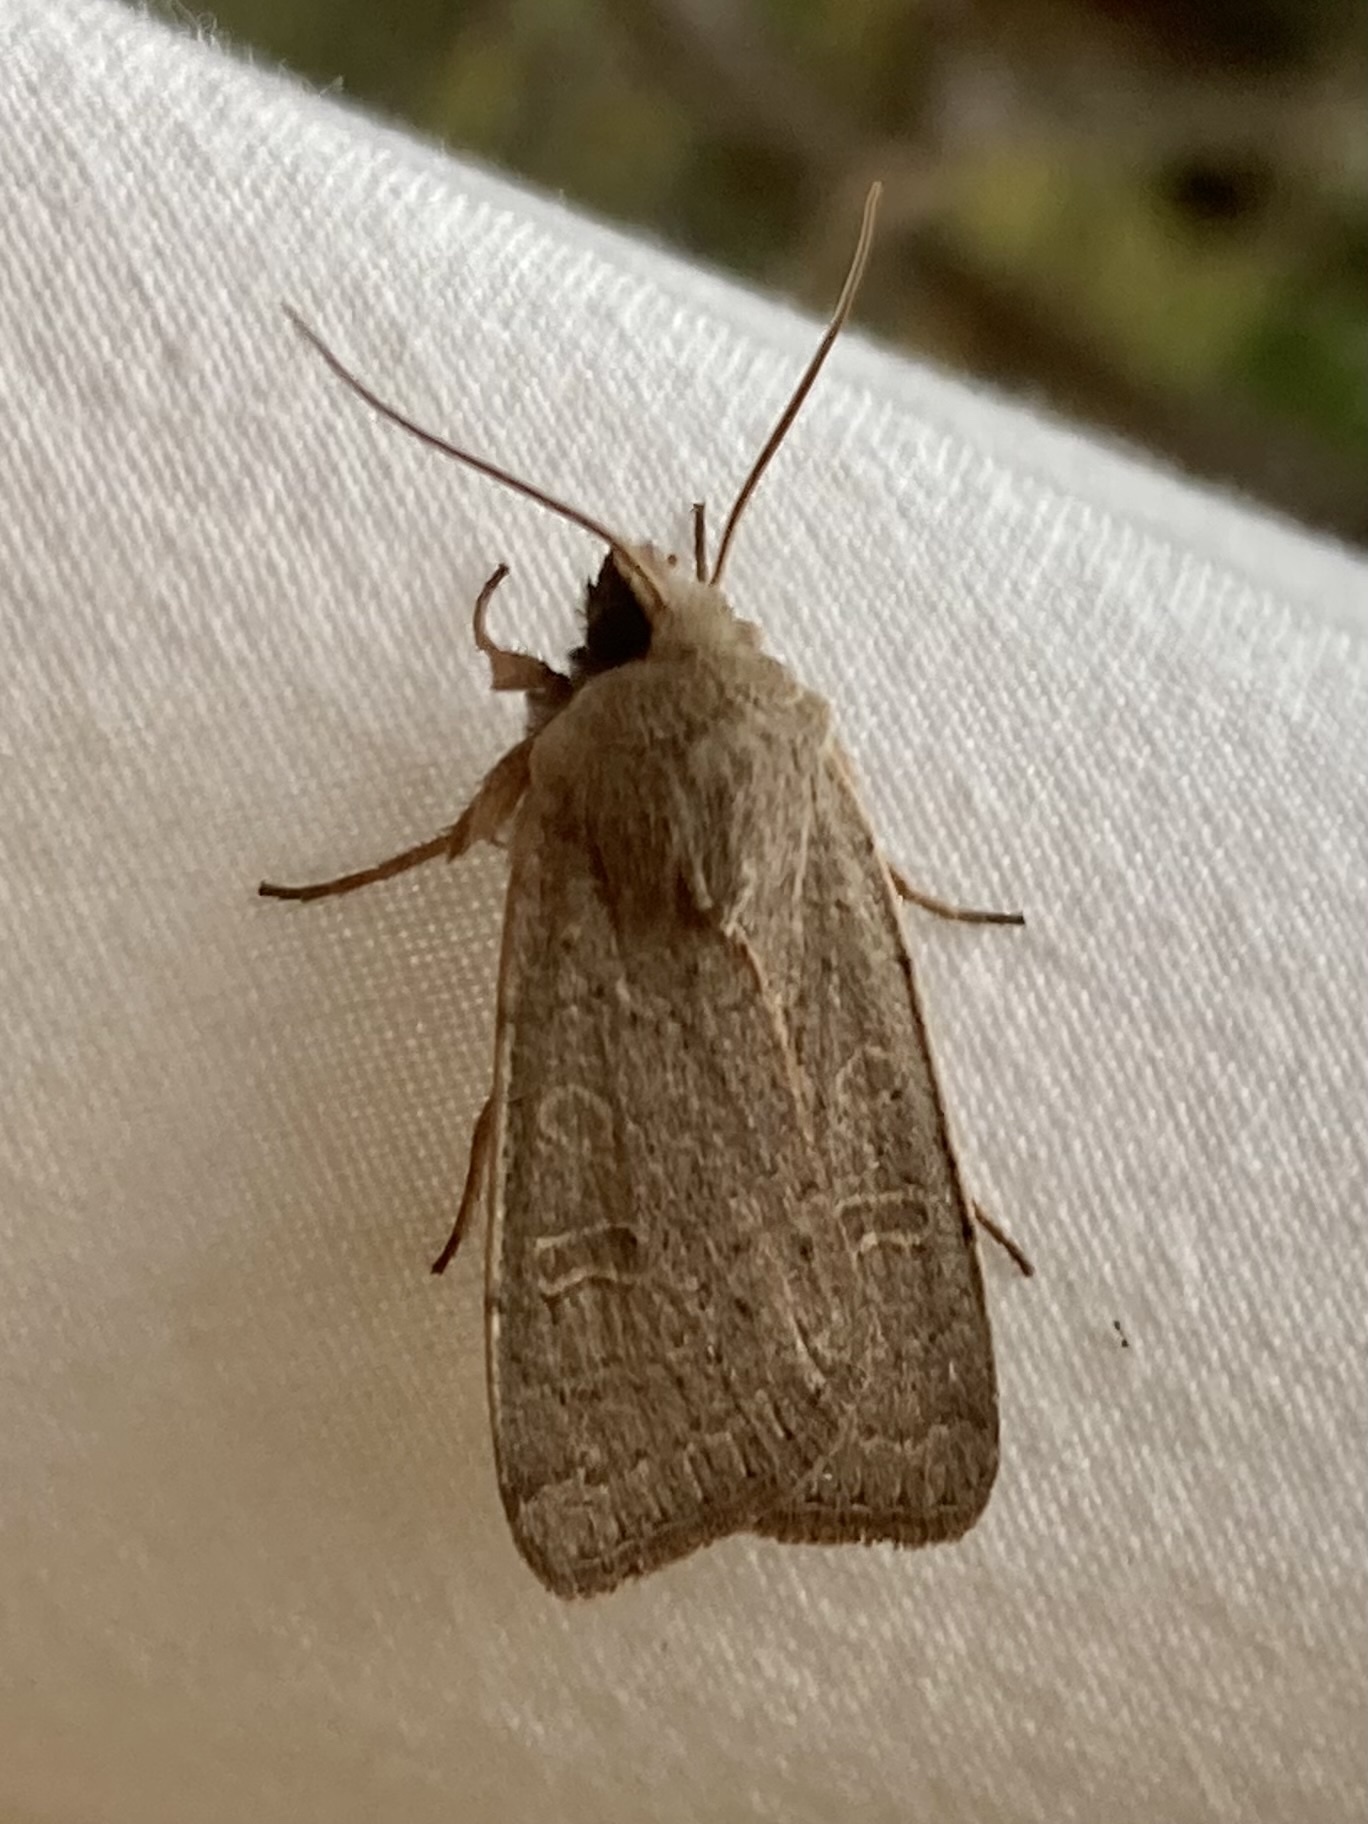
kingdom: Animalia
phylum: Arthropoda
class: Insecta
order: Lepidoptera
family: Noctuidae
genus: Xestia
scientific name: Xestia cohaesa
